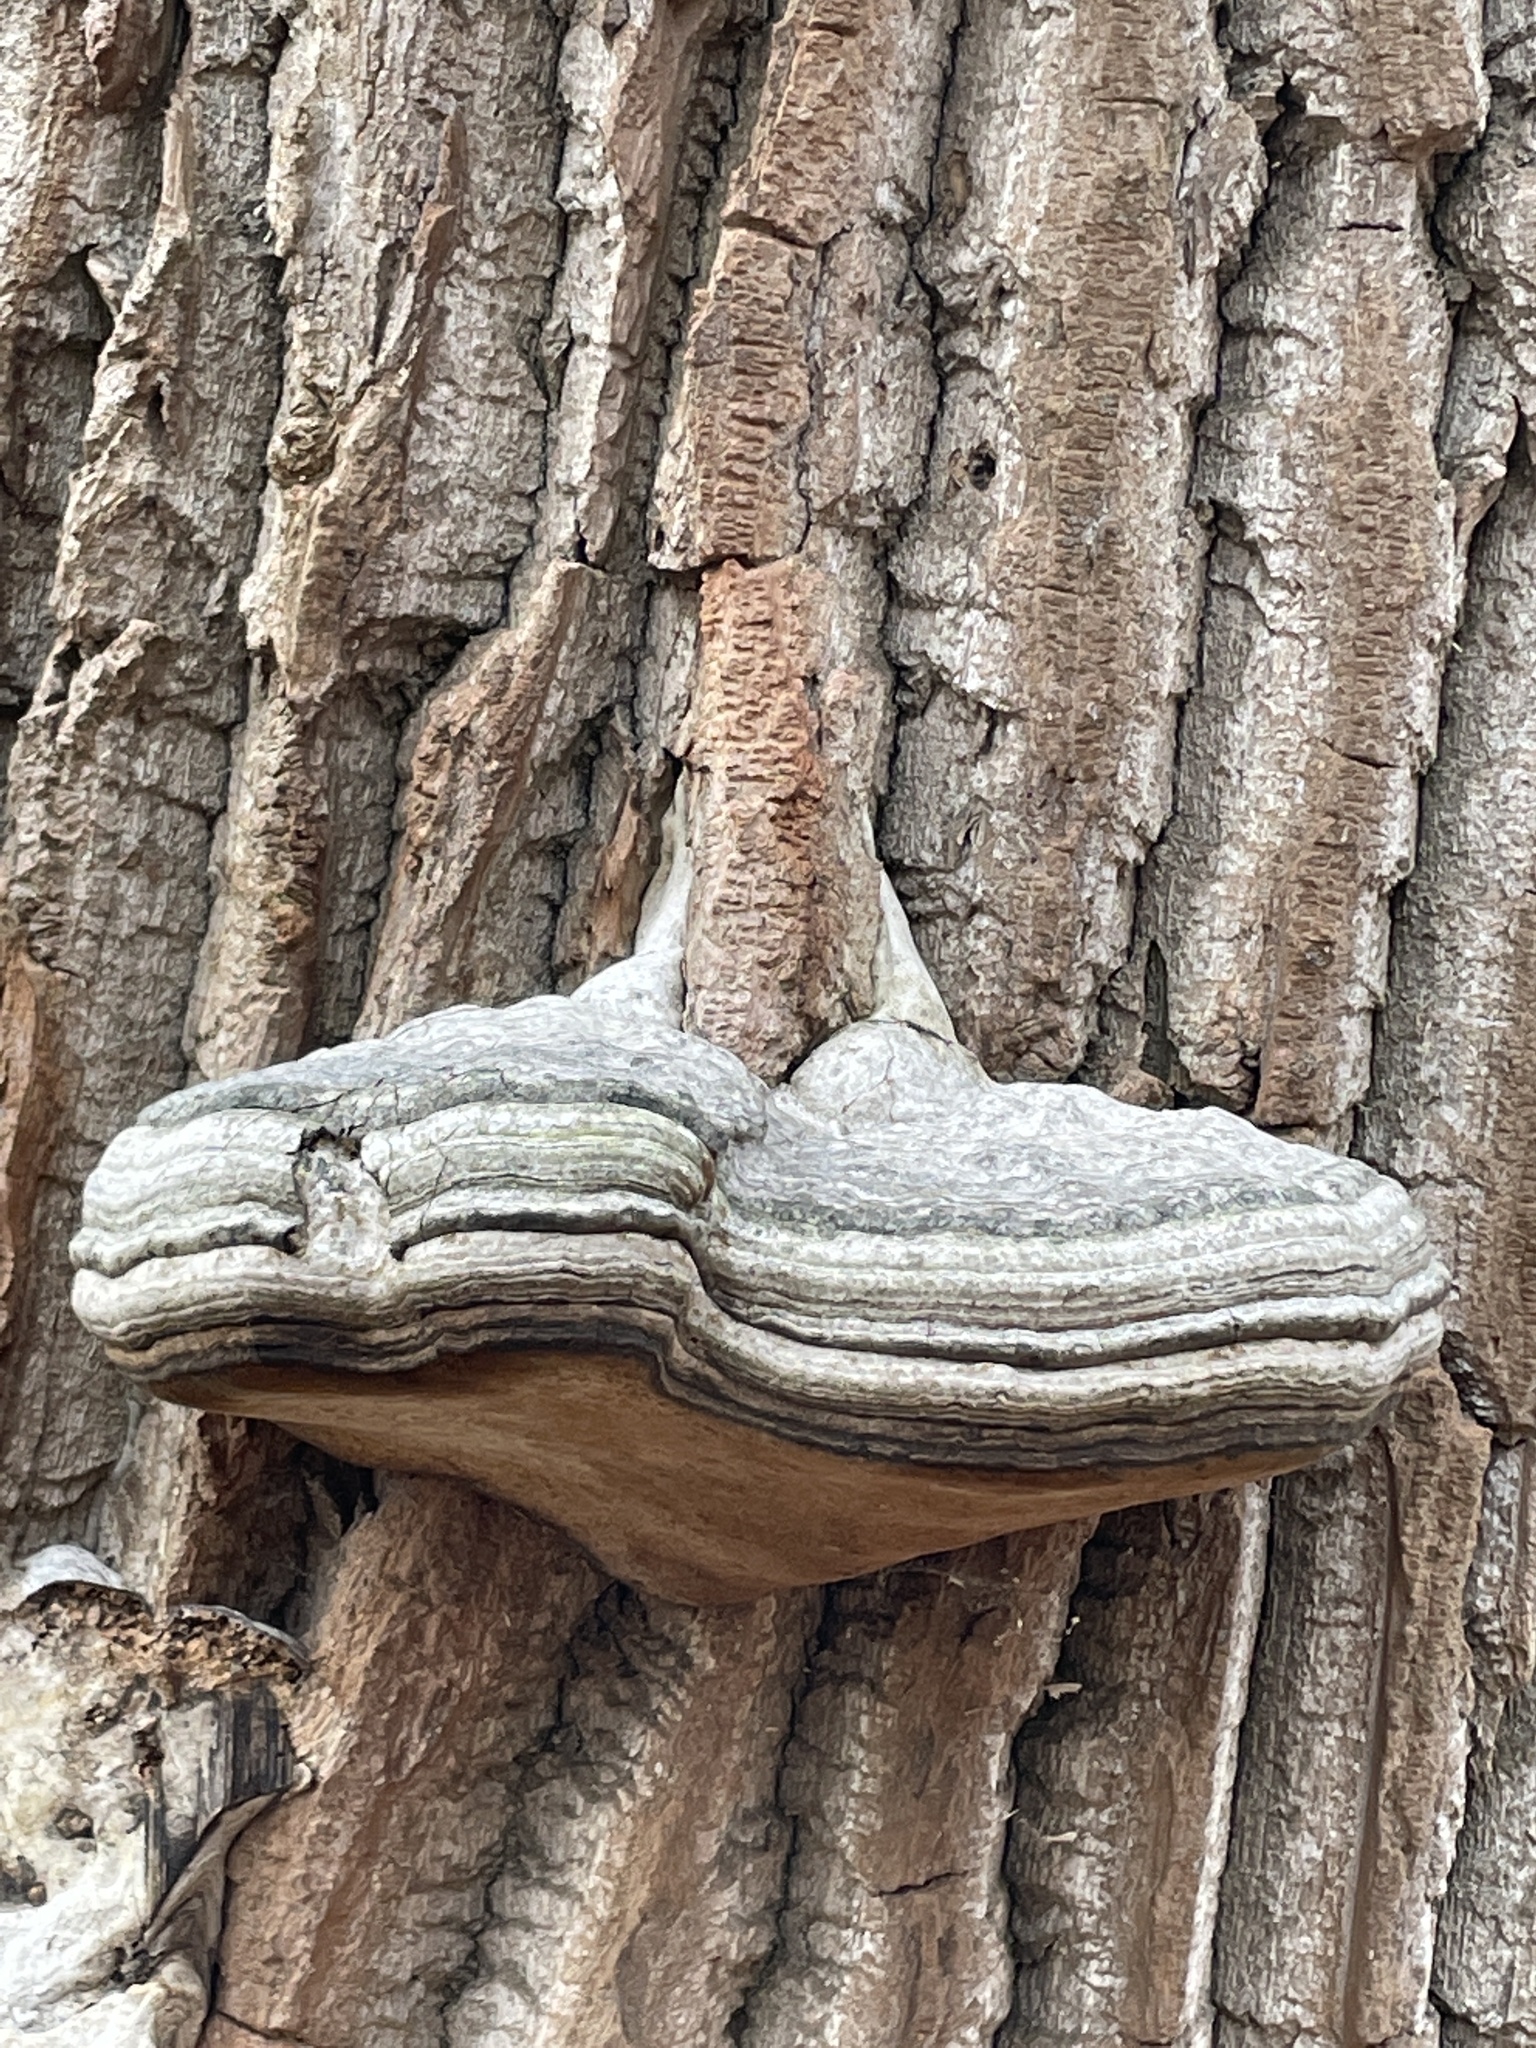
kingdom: Fungi
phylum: Basidiomycota
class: Agaricomycetes
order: Polyporales
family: Polyporaceae
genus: Fomes
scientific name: Fomes fomentarius
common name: Hoof fungus
